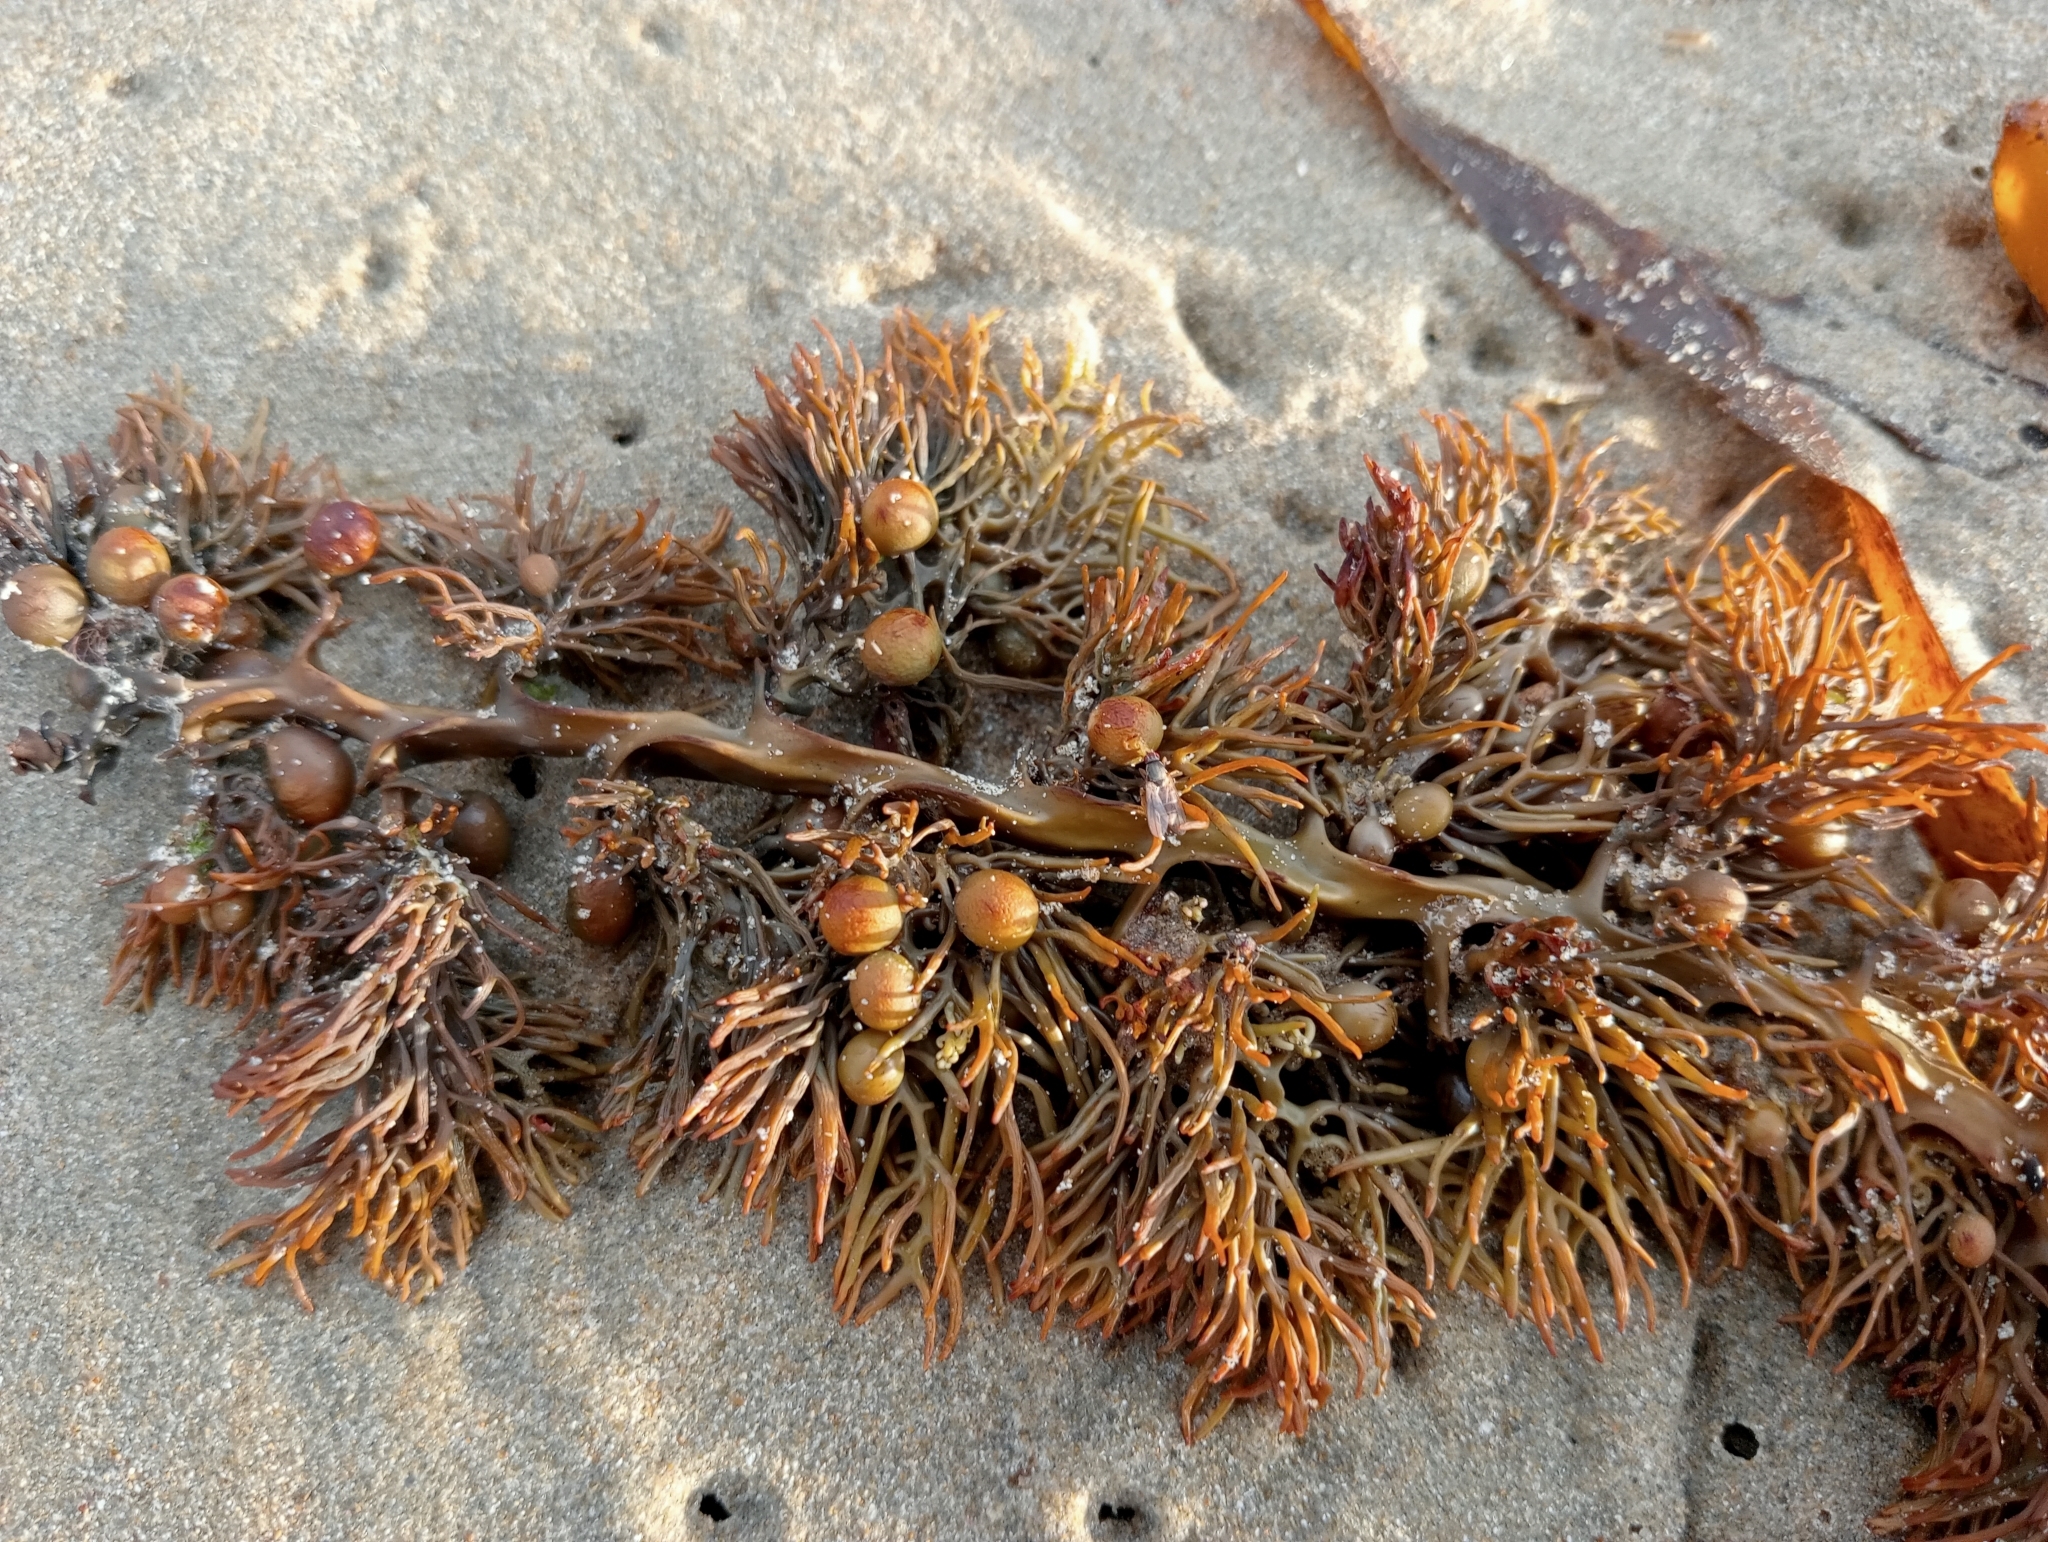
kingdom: Chromista
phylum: Ochrophyta
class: Phaeophyceae
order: Fucales
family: Sargassaceae
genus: Cystophora
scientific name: Cystophora retroflexa
